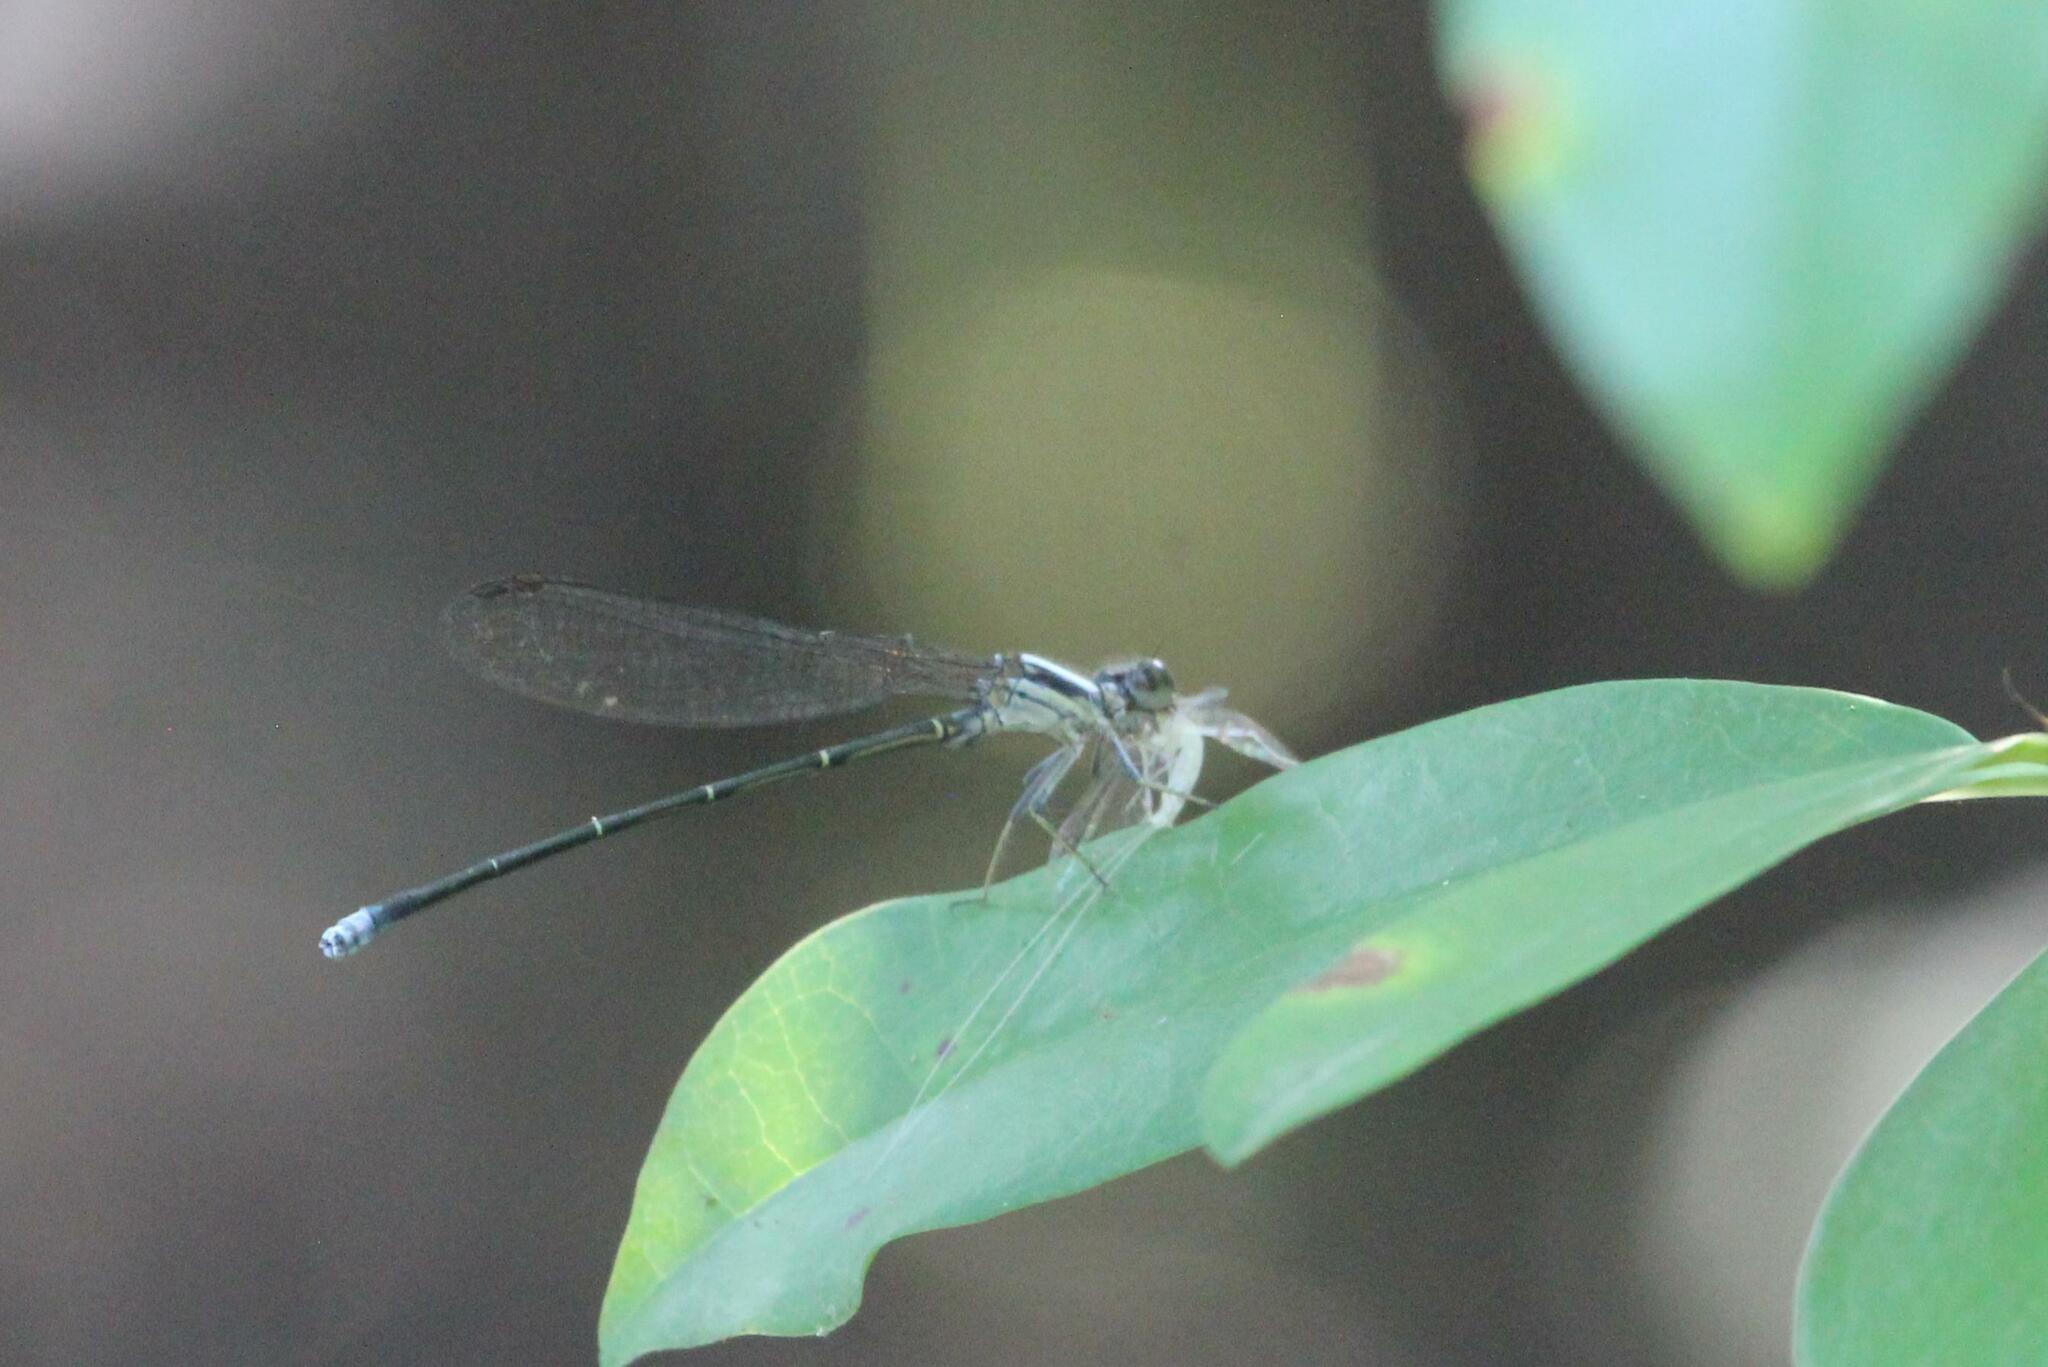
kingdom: Animalia
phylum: Arthropoda
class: Insecta
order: Odonata
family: Coenagrionidae
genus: Argia
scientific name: Argia moesta
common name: Powdered dancer
